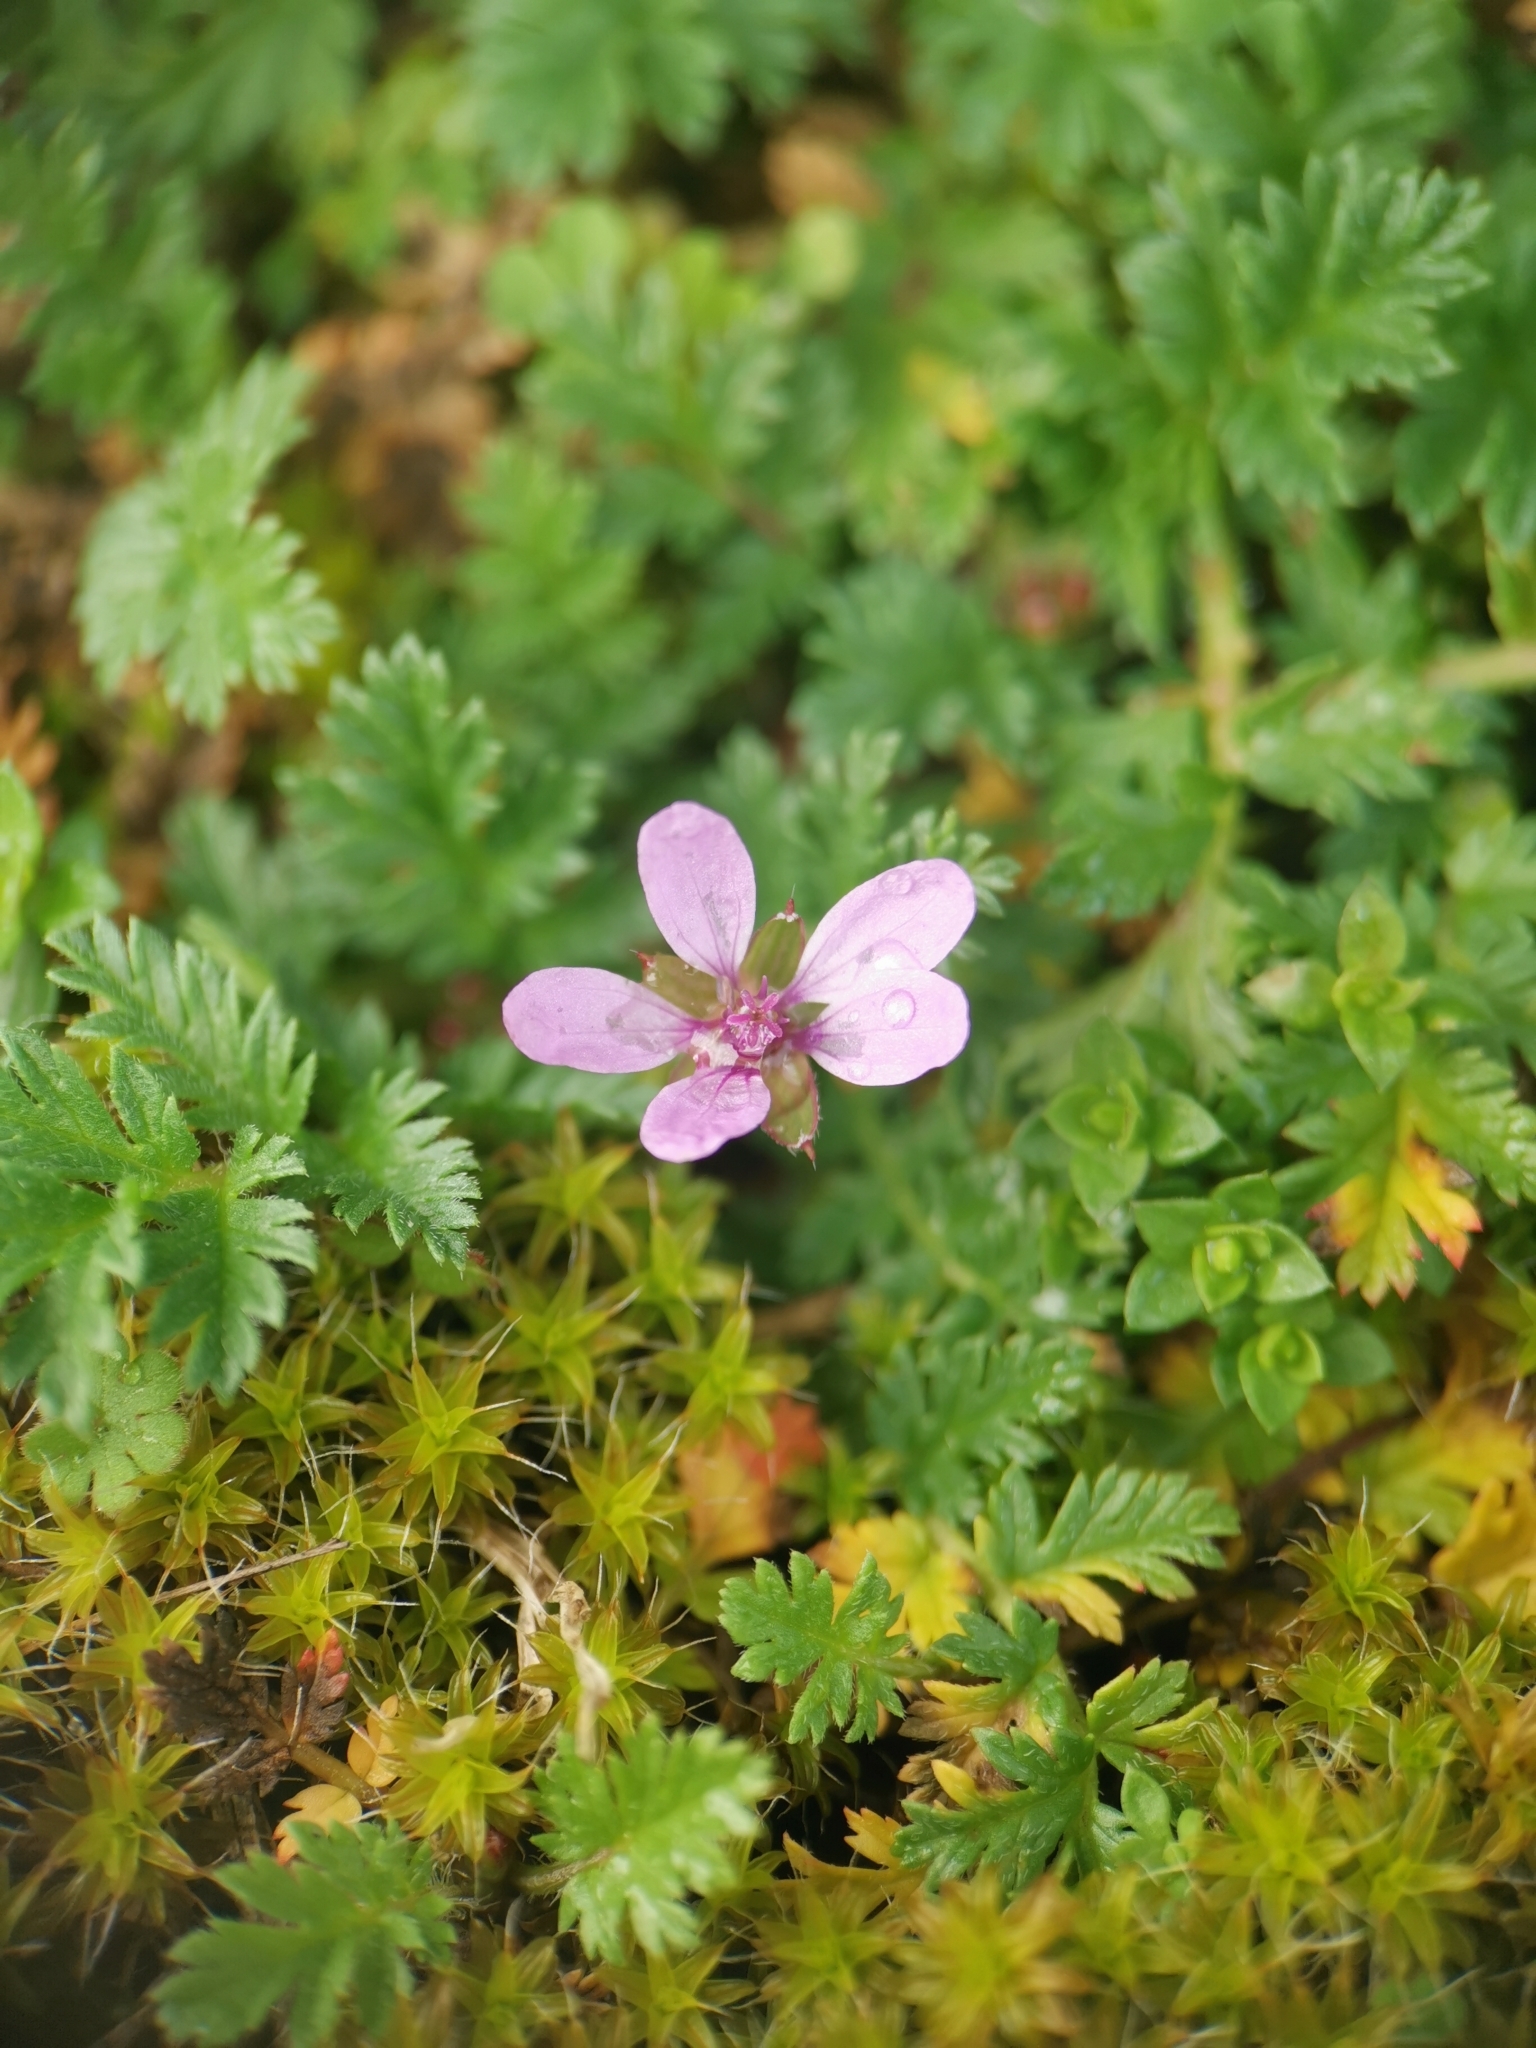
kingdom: Plantae
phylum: Tracheophyta
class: Magnoliopsida
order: Geraniales
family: Geraniaceae
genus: Erodium
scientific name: Erodium cicutarium
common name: Common stork's-bill
